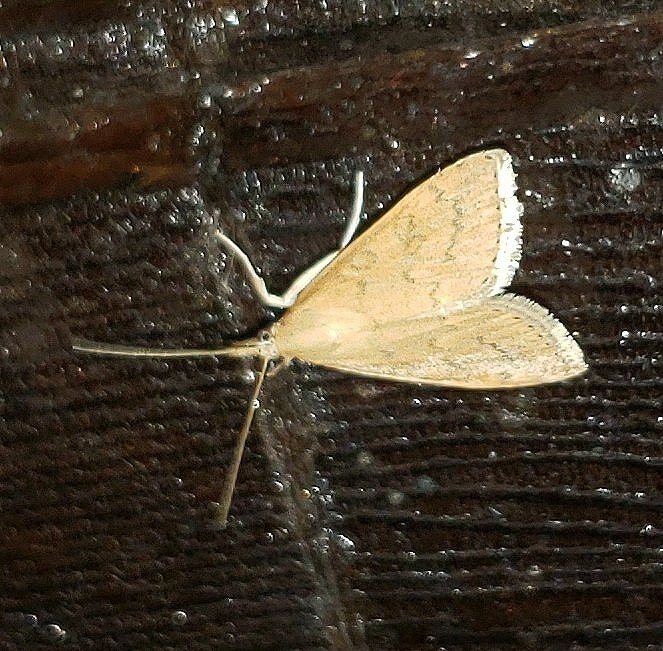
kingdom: Animalia
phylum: Arthropoda
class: Insecta
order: Lepidoptera
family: Crambidae
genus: Udea
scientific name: Udea rubigalis
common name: Celery leaftier moth
